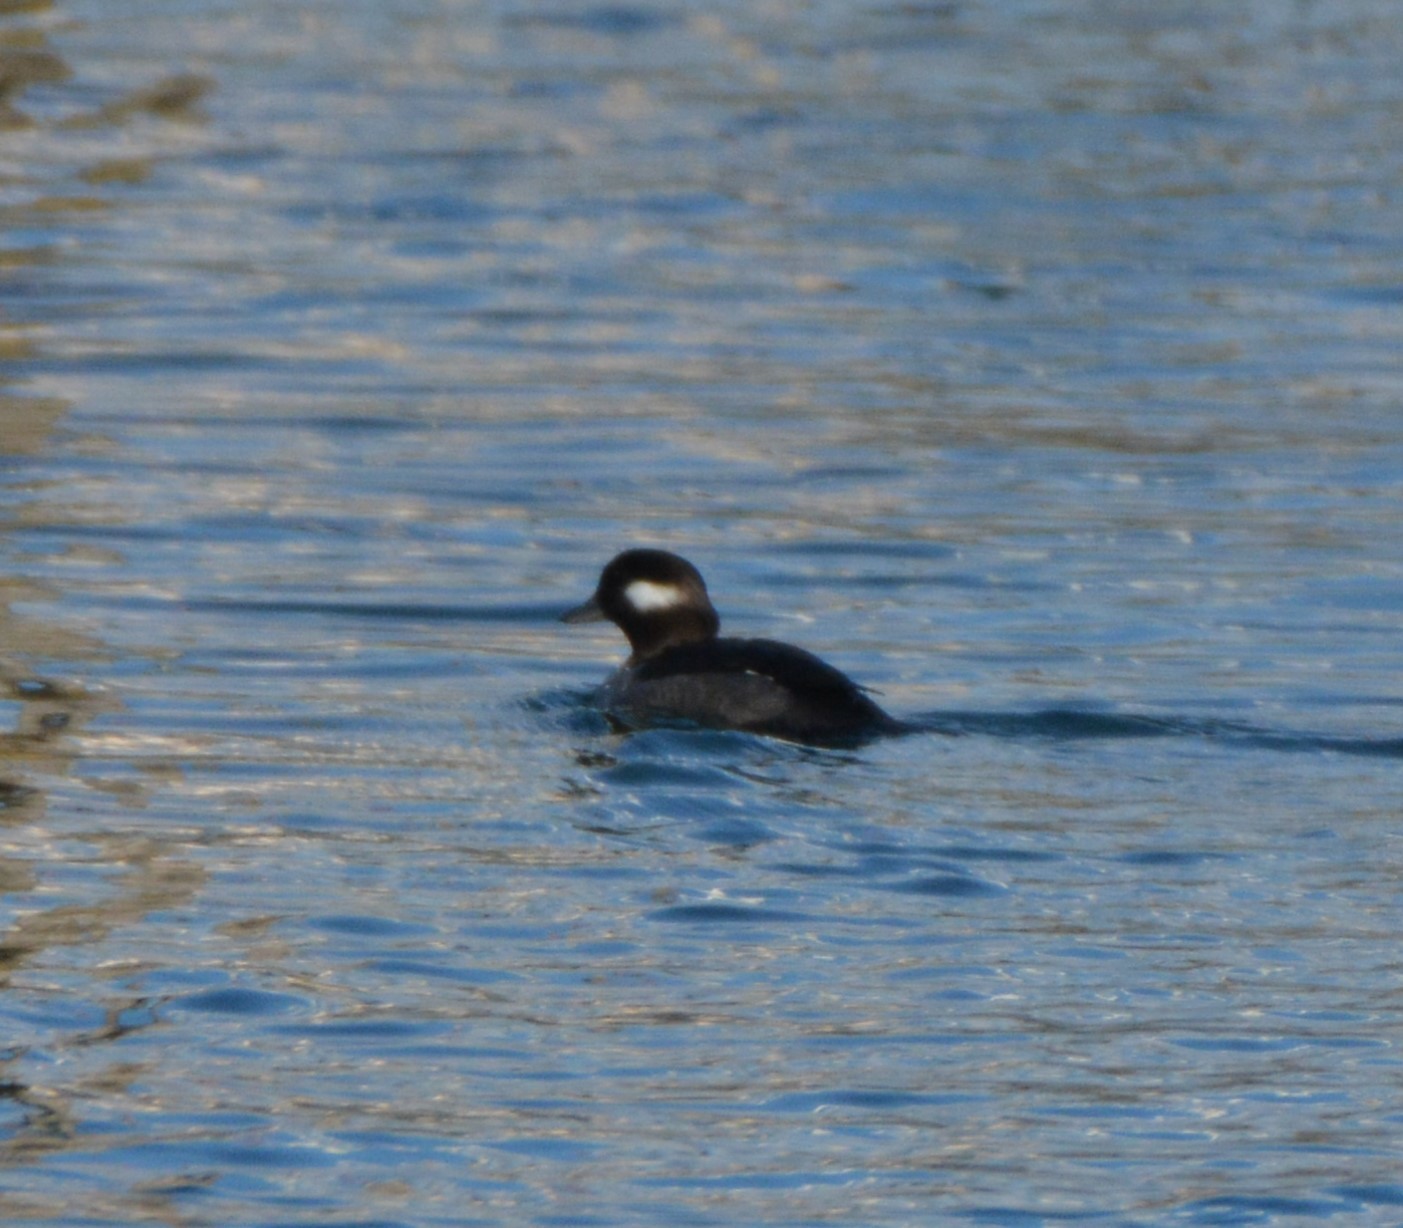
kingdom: Animalia
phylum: Chordata
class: Aves
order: Anseriformes
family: Anatidae
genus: Bucephala
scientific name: Bucephala albeola
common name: Bufflehead
